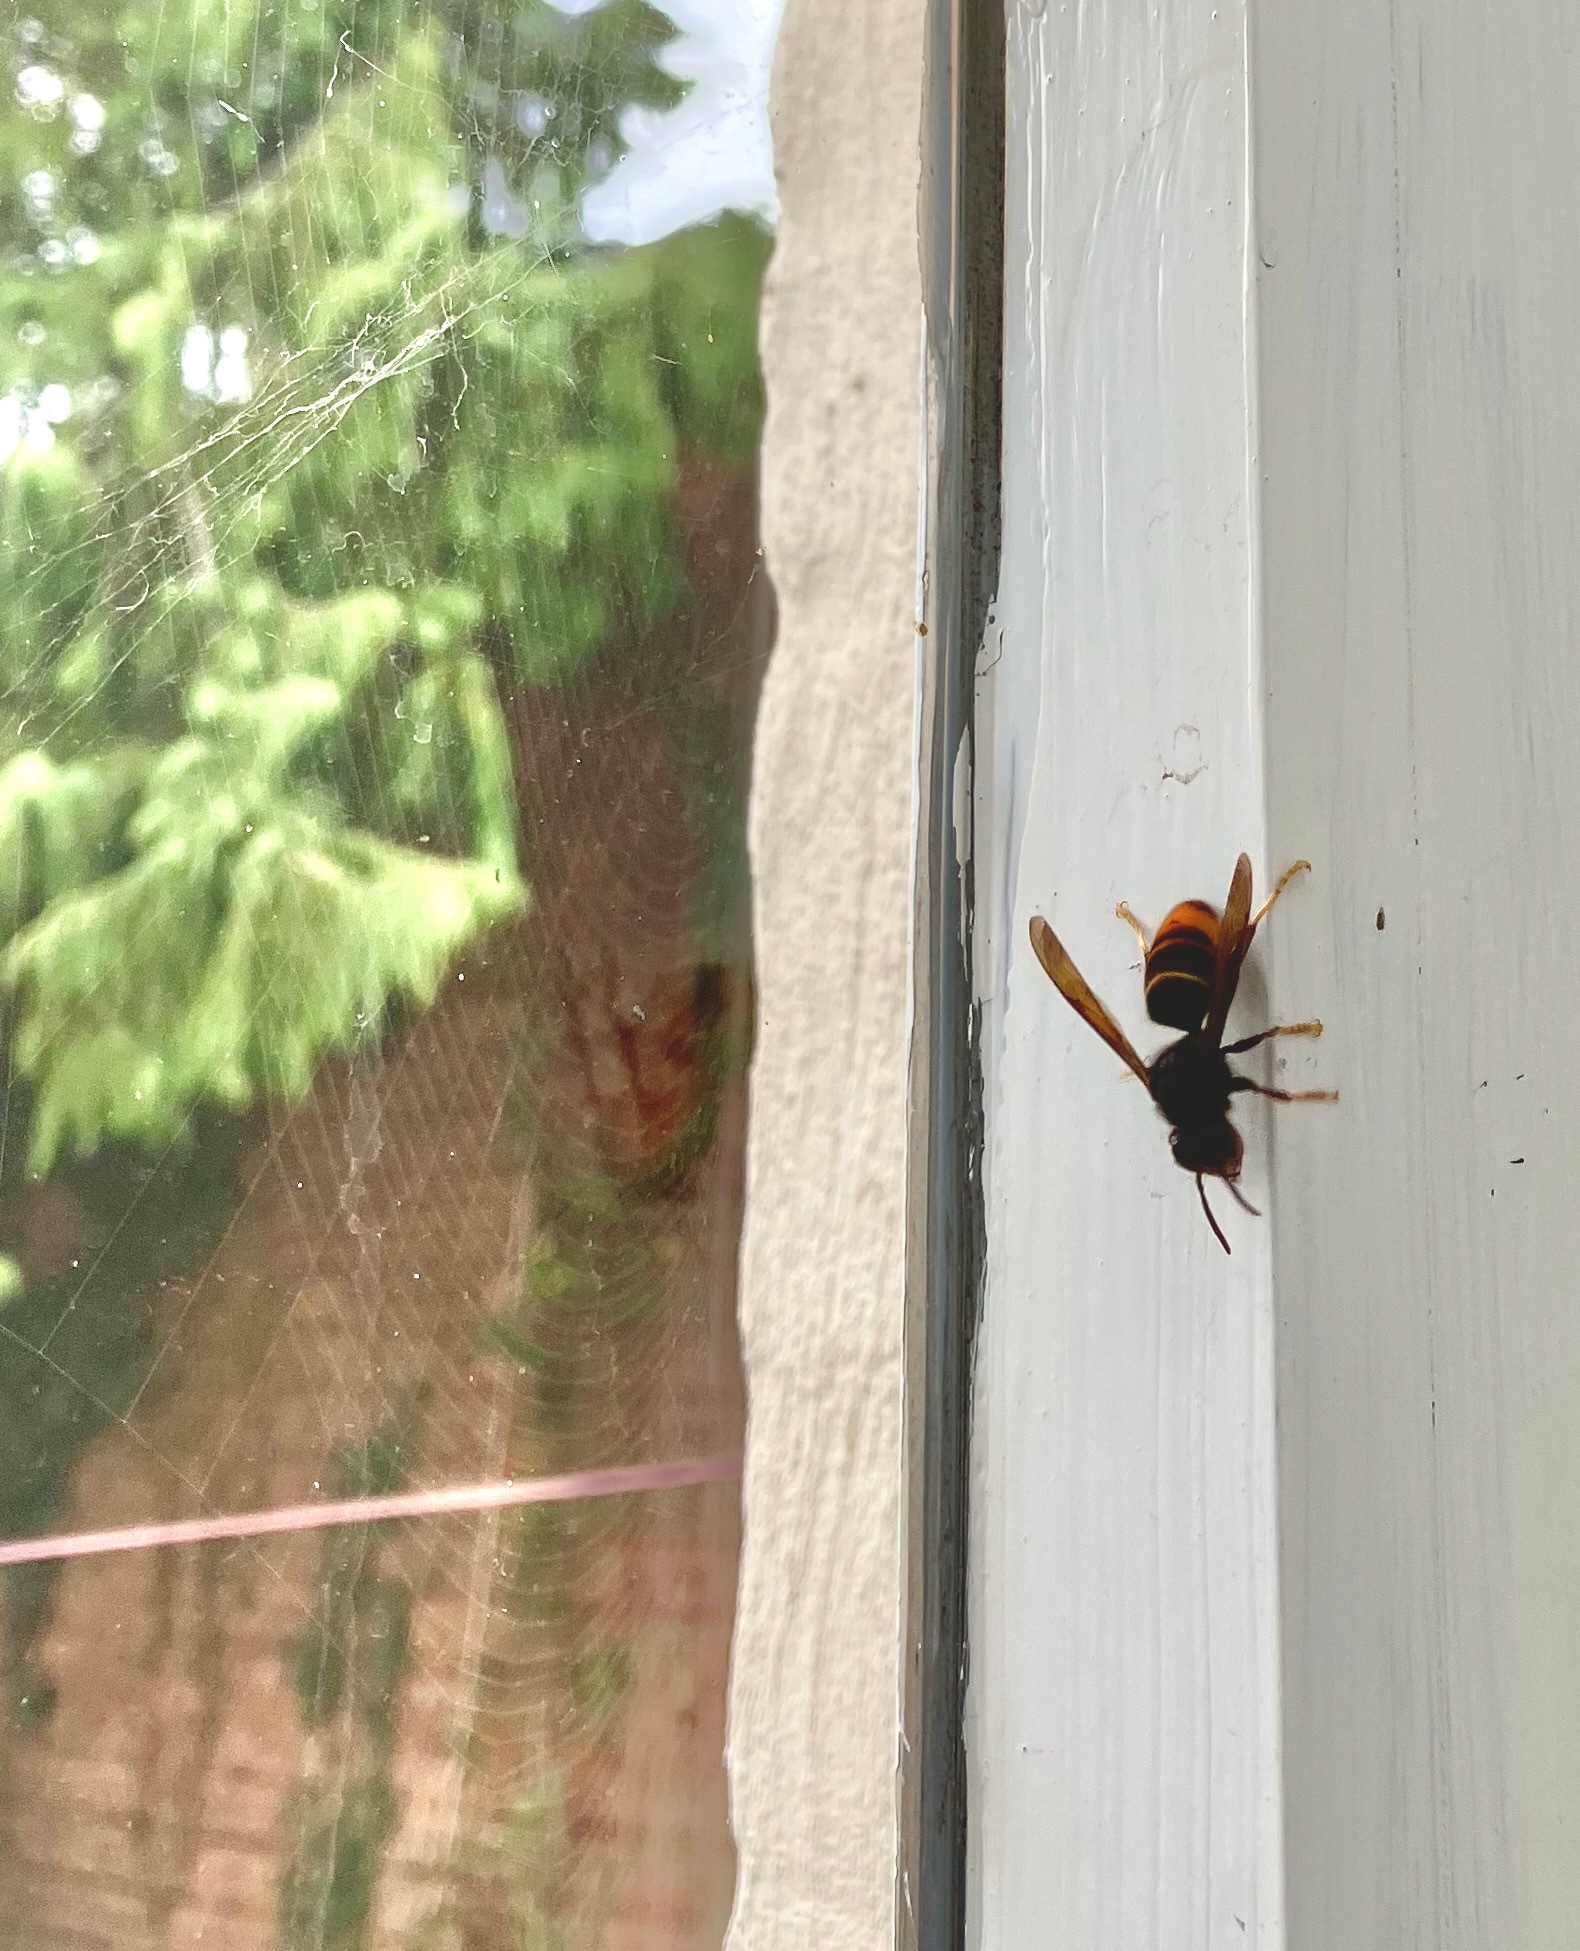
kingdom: Animalia
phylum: Arthropoda
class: Insecta
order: Hymenoptera
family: Vespidae
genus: Vespa
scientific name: Vespa velutina
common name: Asian hornet
